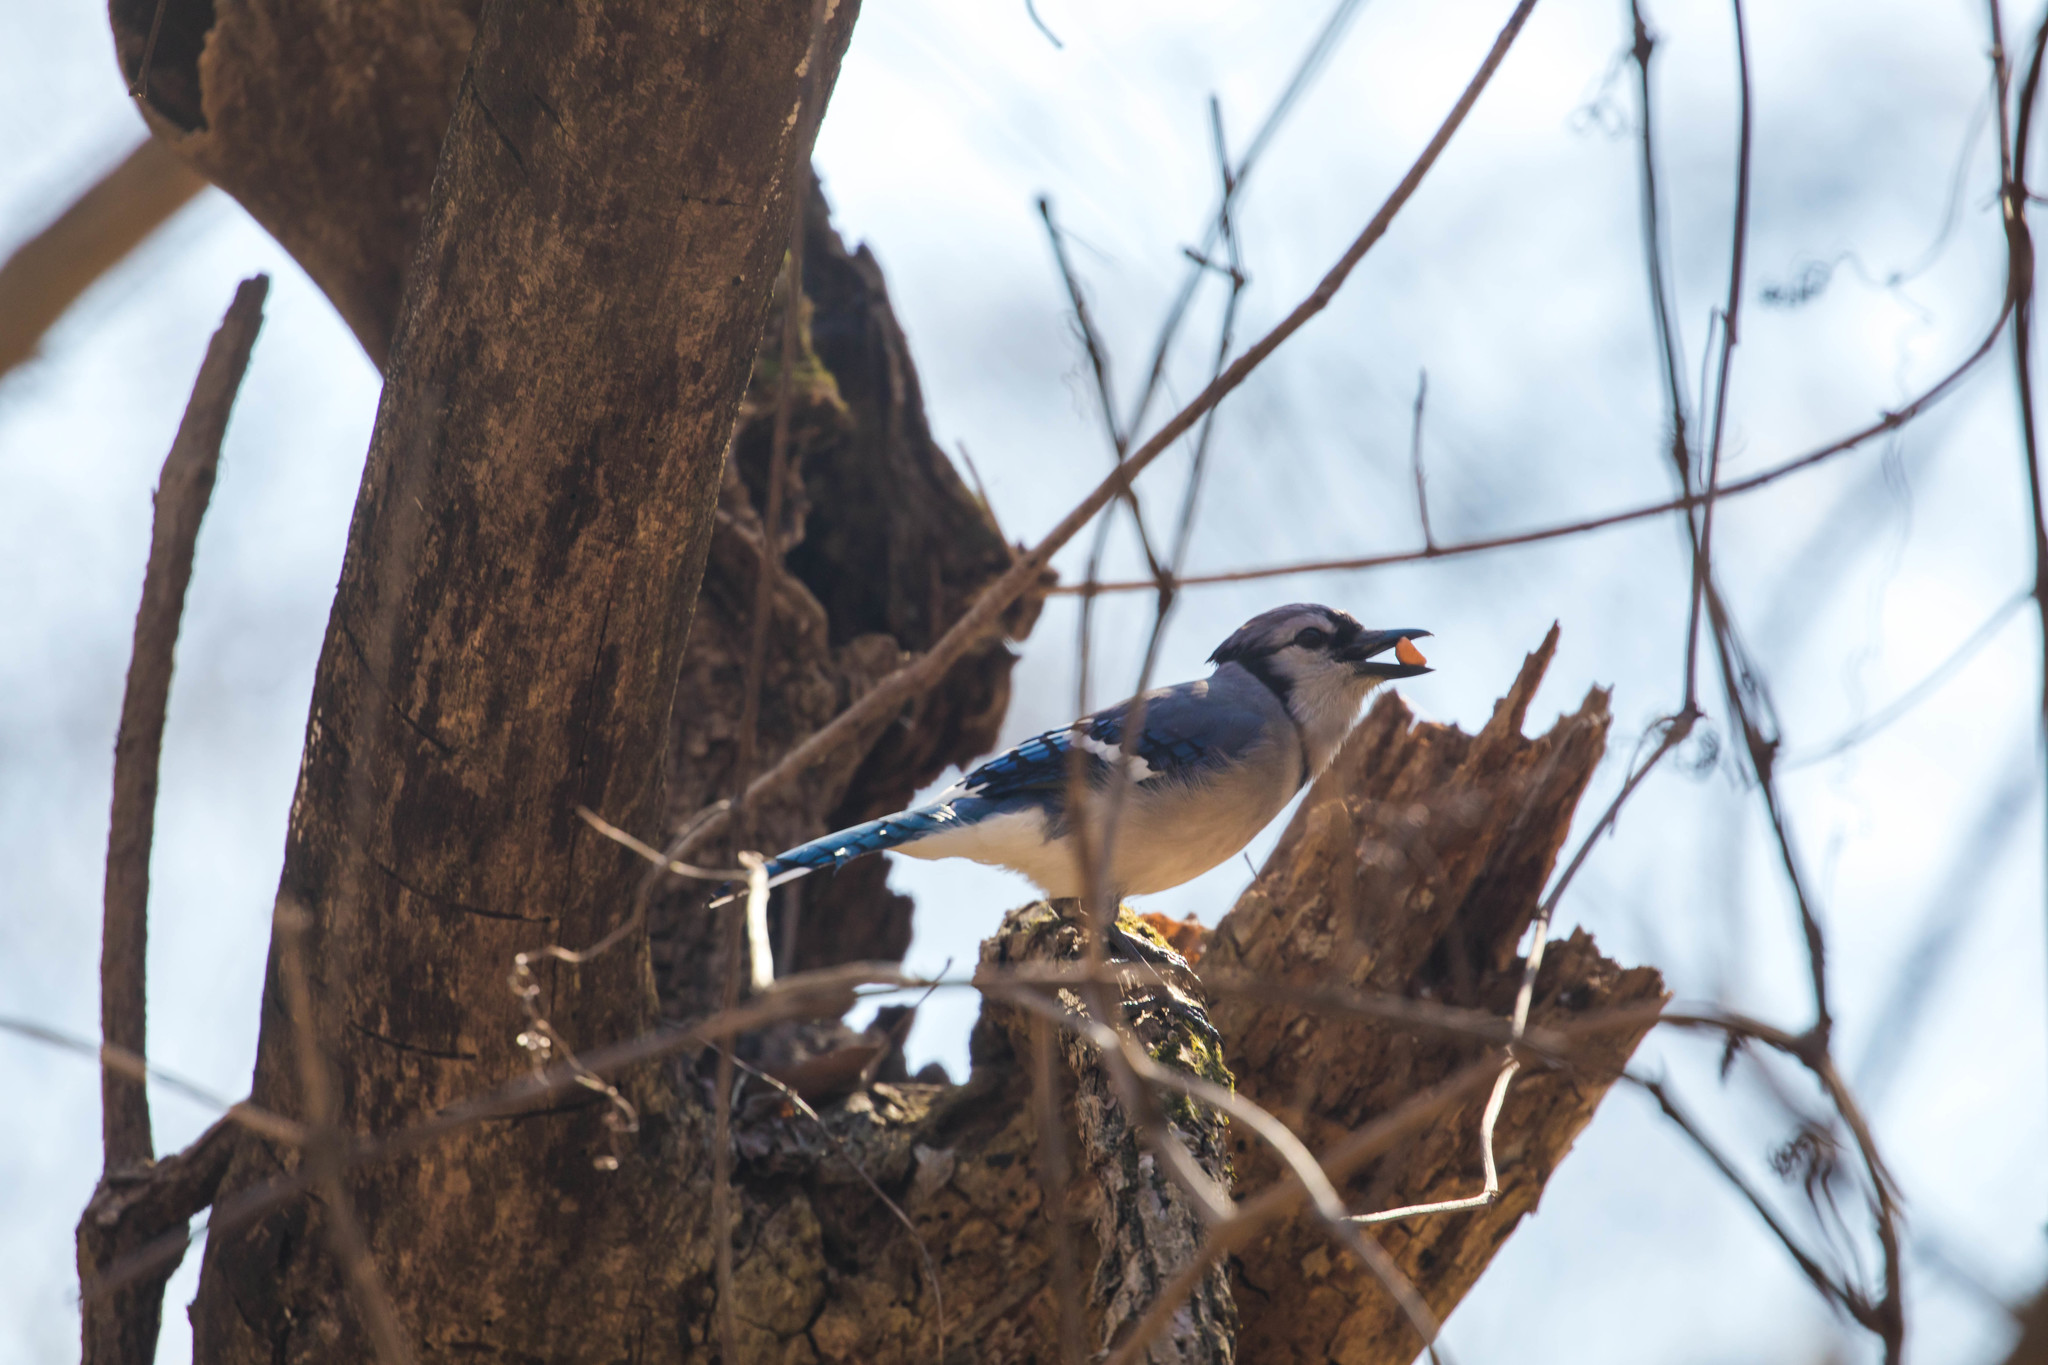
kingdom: Animalia
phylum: Chordata
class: Aves
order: Passeriformes
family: Corvidae
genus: Cyanocitta
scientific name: Cyanocitta cristata
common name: Blue jay
